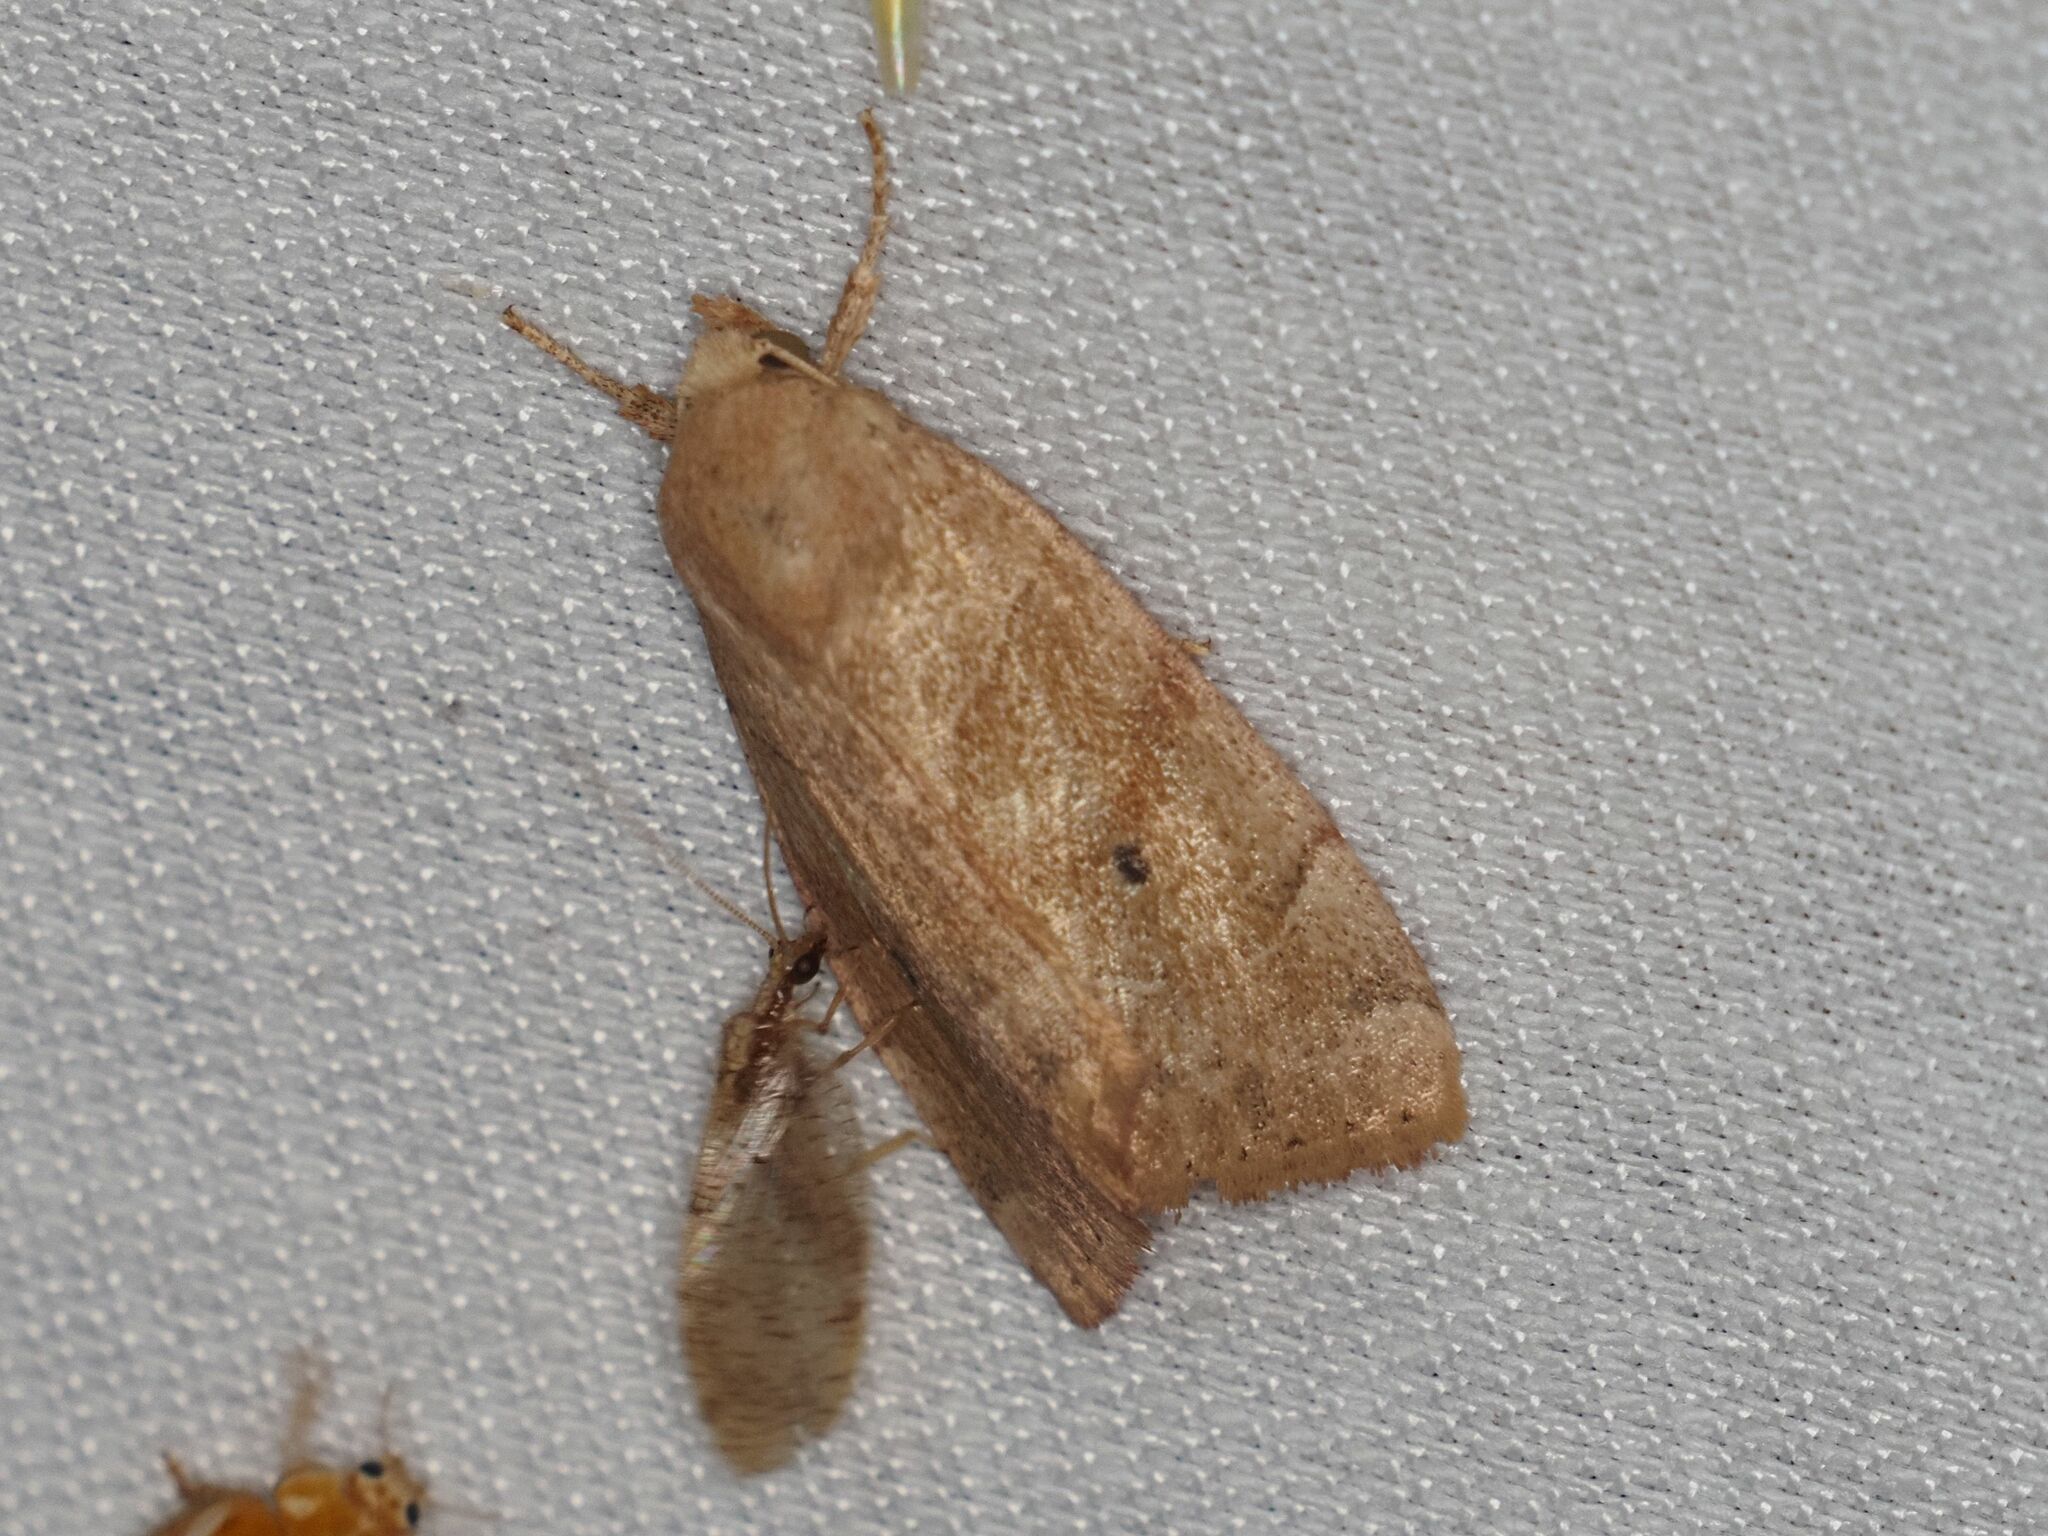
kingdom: Animalia
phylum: Arthropoda
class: Insecta
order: Lepidoptera
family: Noctuidae
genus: Cosmia
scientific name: Cosmia trapezina
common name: Dun-bar
